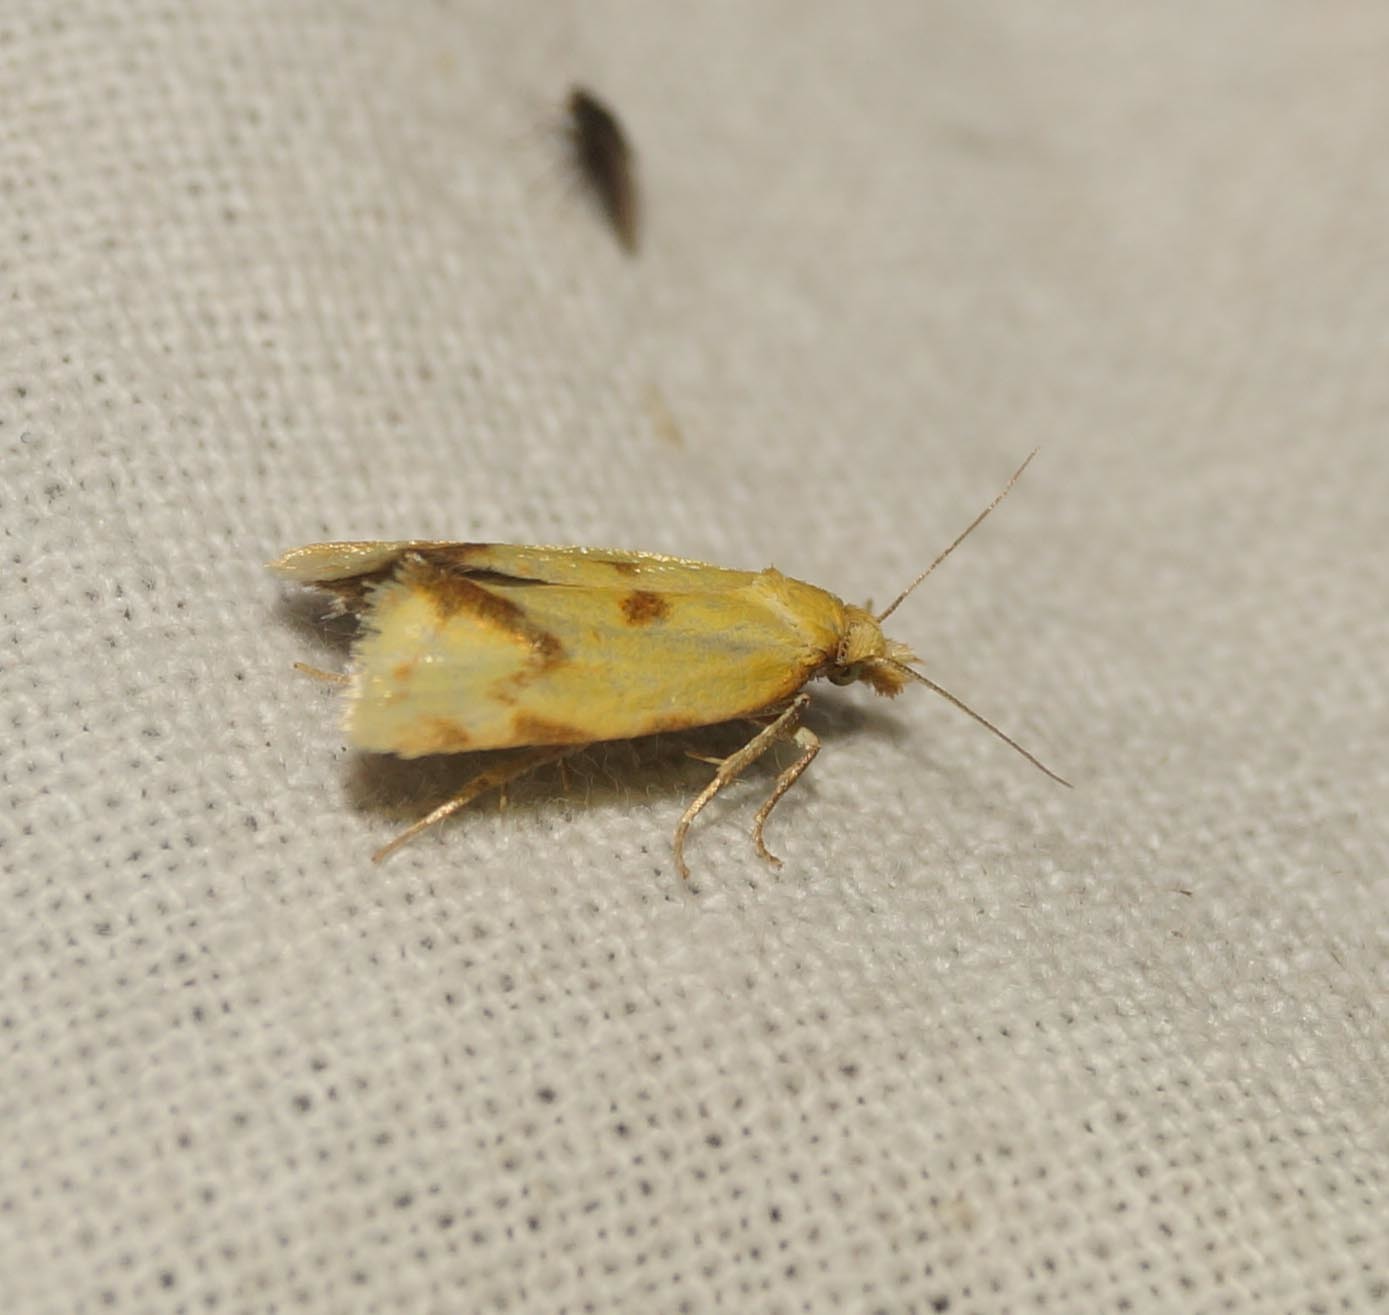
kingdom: Animalia
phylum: Arthropoda
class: Insecta
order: Lepidoptera
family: Tortricidae
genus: Agapeta
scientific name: Agapeta hamana
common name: Common yellow conch
